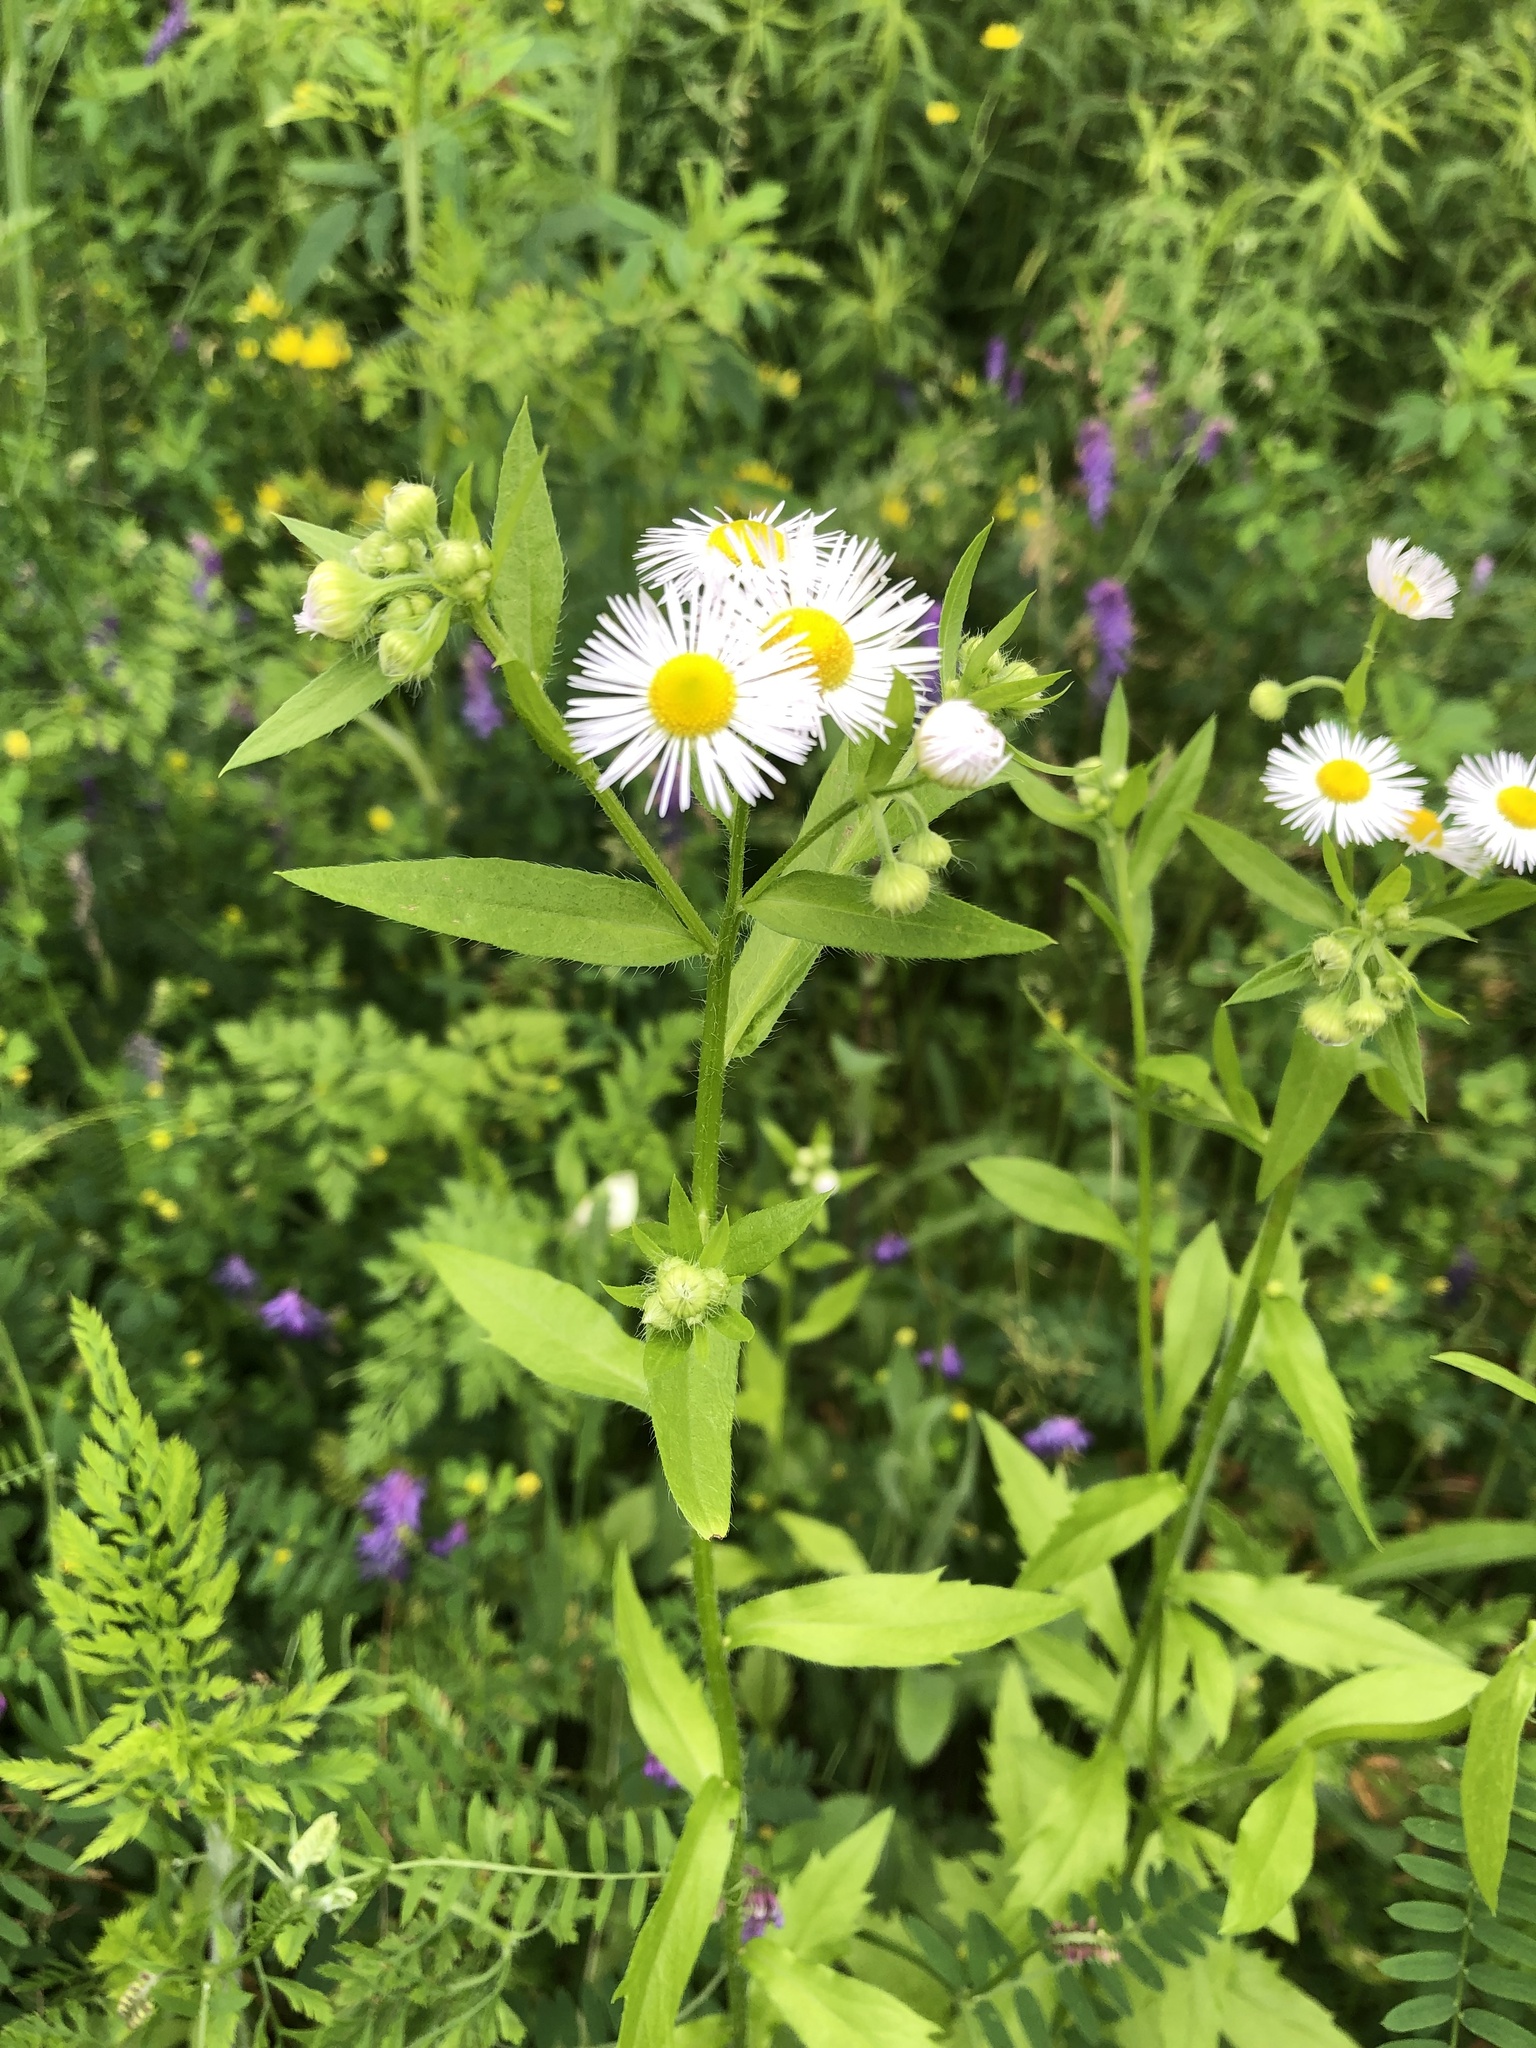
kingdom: Plantae
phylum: Tracheophyta
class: Magnoliopsida
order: Asterales
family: Asteraceae
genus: Erigeron
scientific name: Erigeron annuus
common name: Tall fleabane
